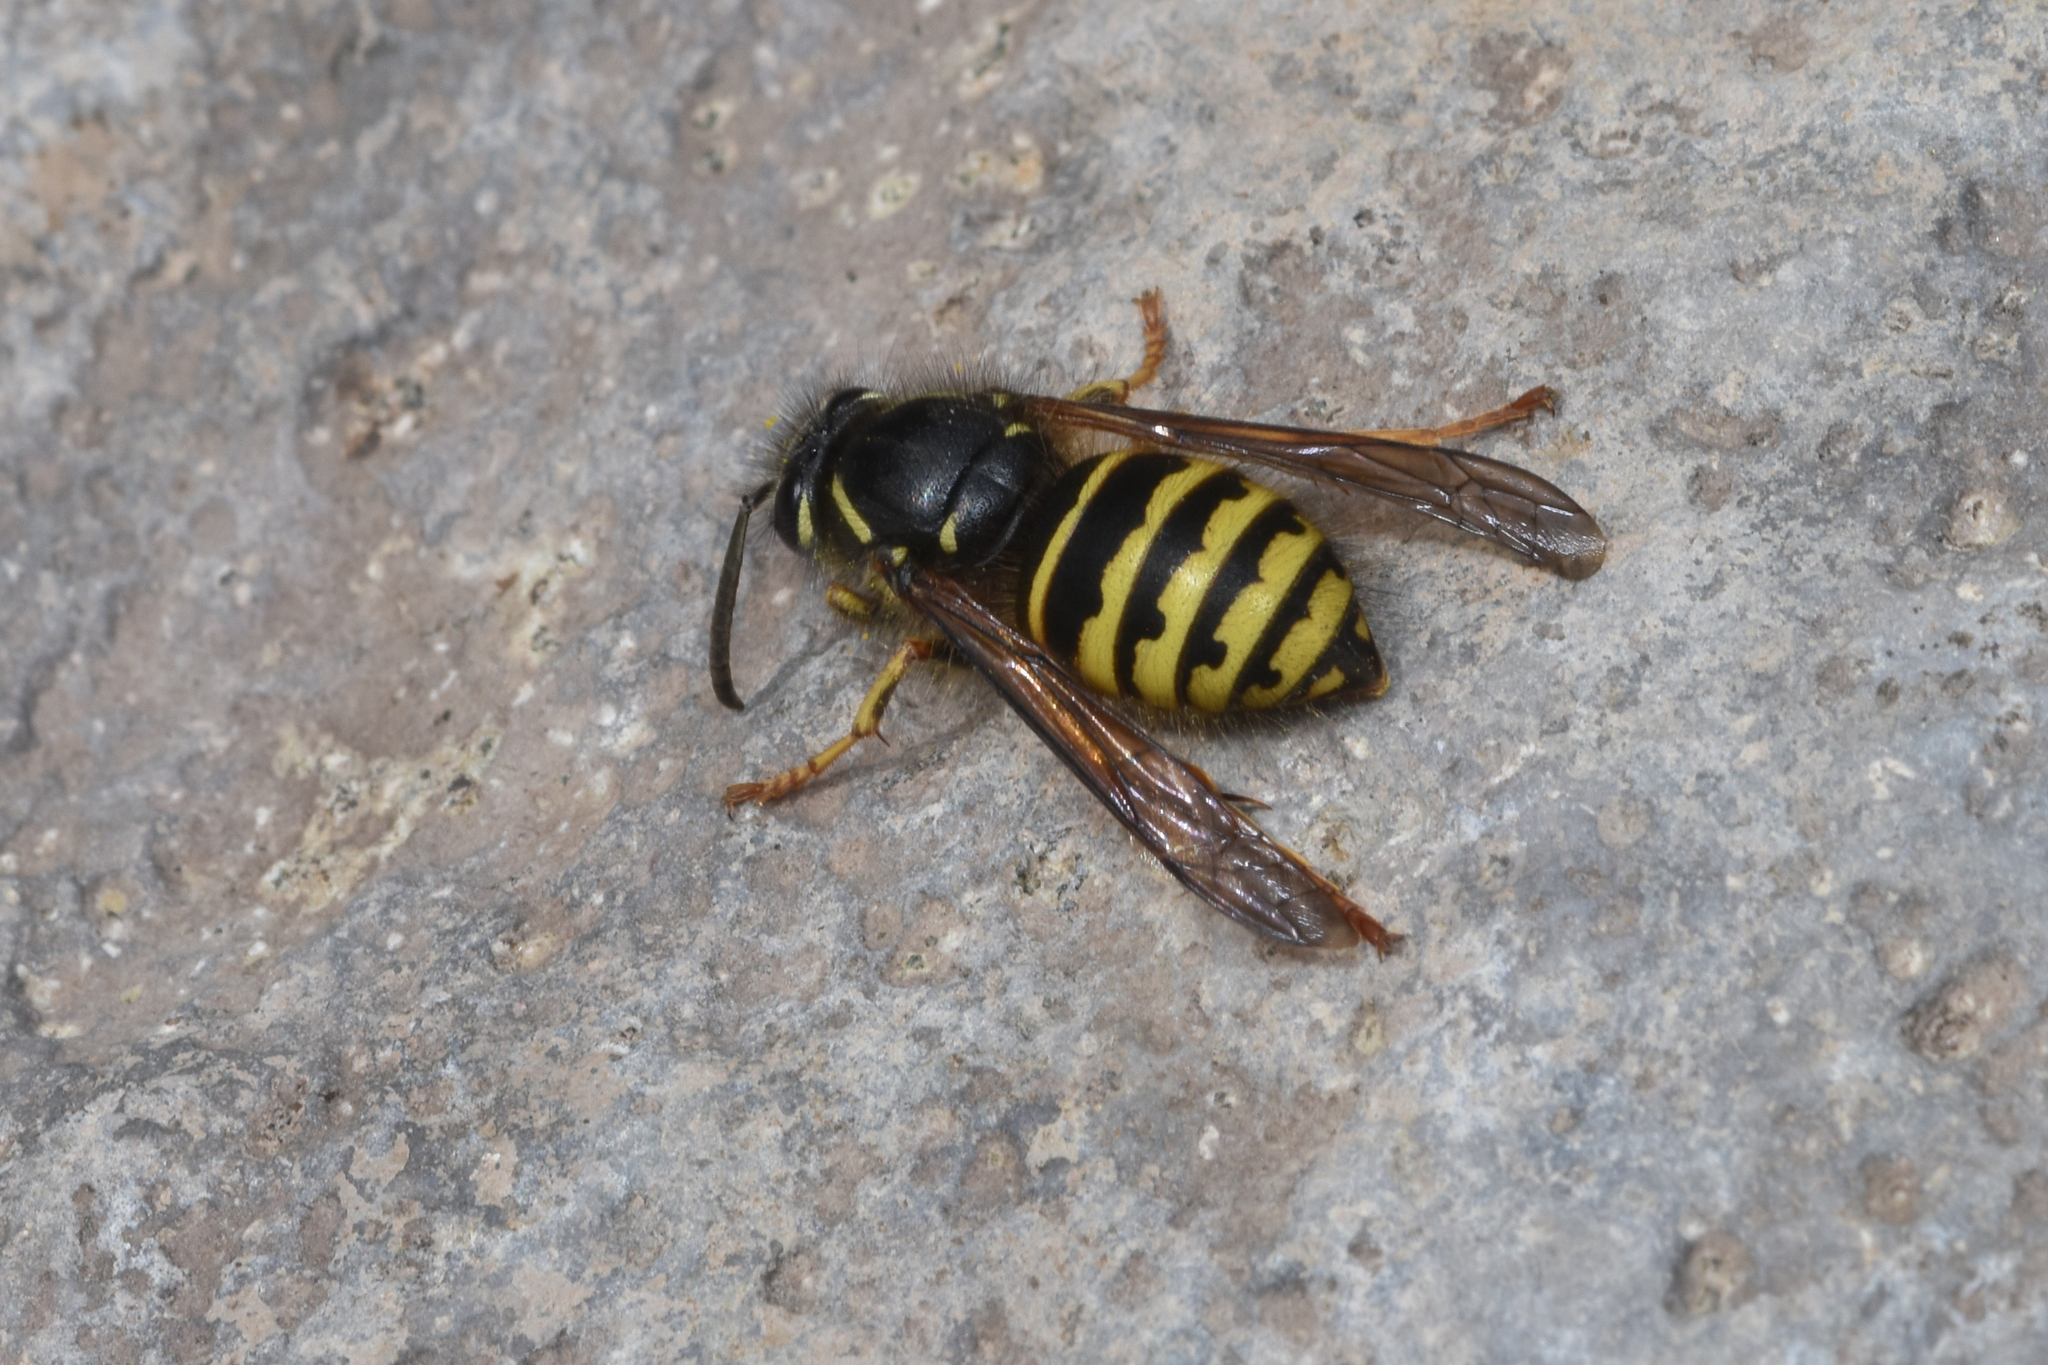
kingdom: Animalia
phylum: Arthropoda
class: Insecta
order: Hymenoptera
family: Vespidae
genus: Dolichovespula
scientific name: Dolichovespula arenaria
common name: Aerial yellowjacket
